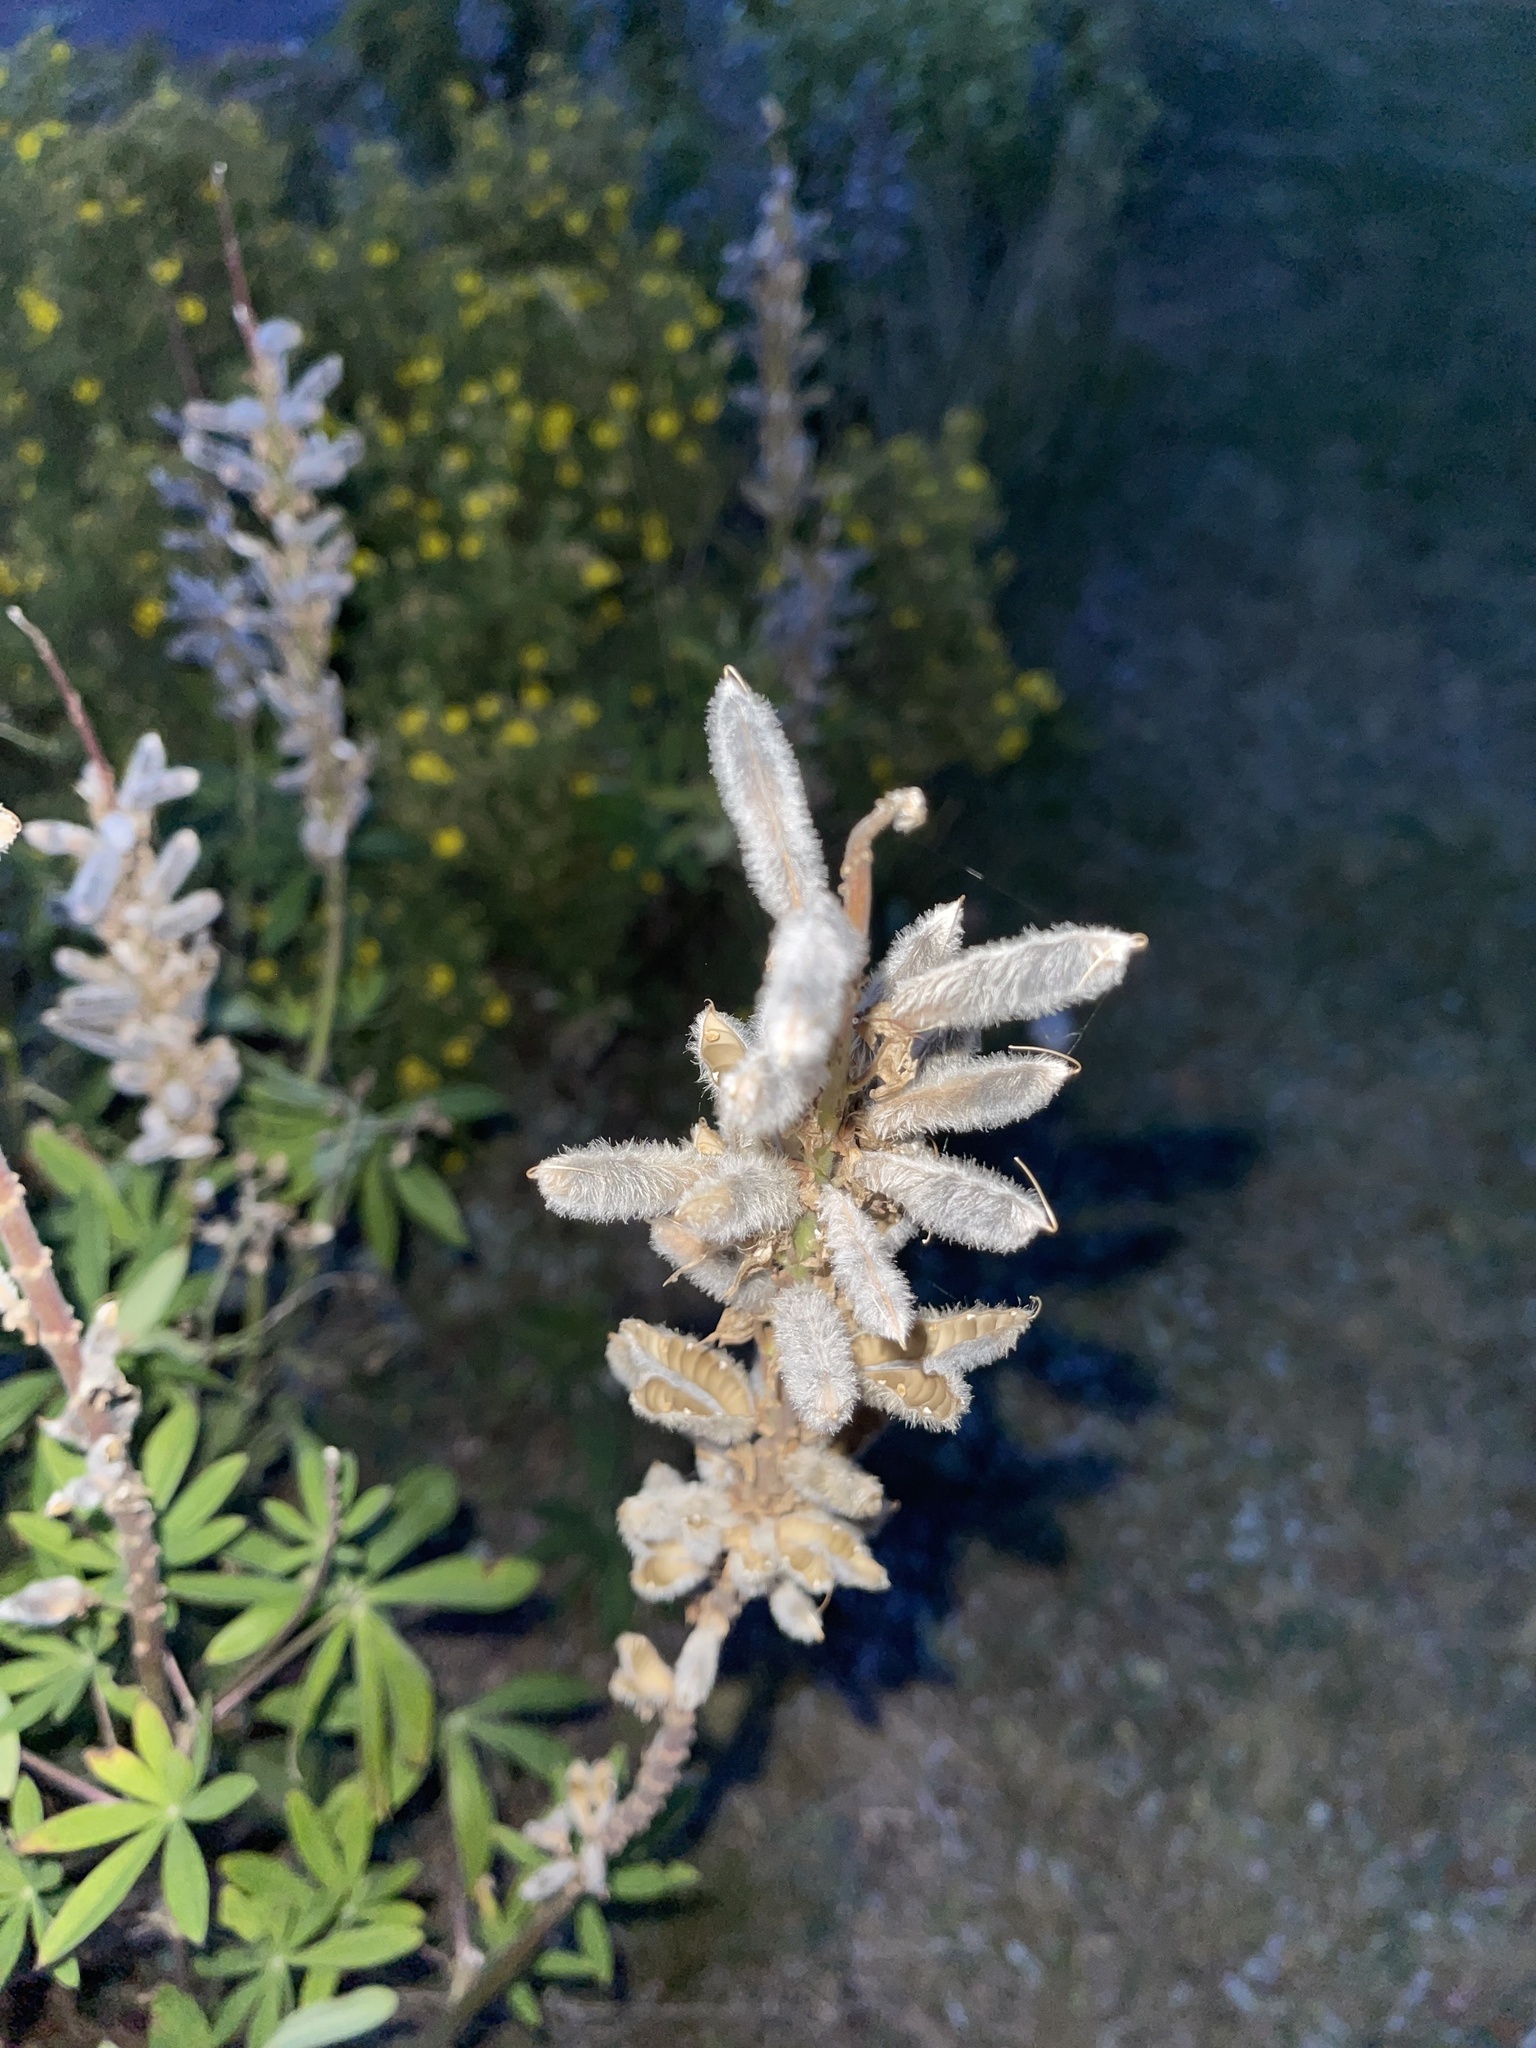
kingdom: Plantae
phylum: Tracheophyta
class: Magnoliopsida
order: Fabales
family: Fabaceae
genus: Lupinus
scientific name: Lupinus polyphyllus
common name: Garden lupin
